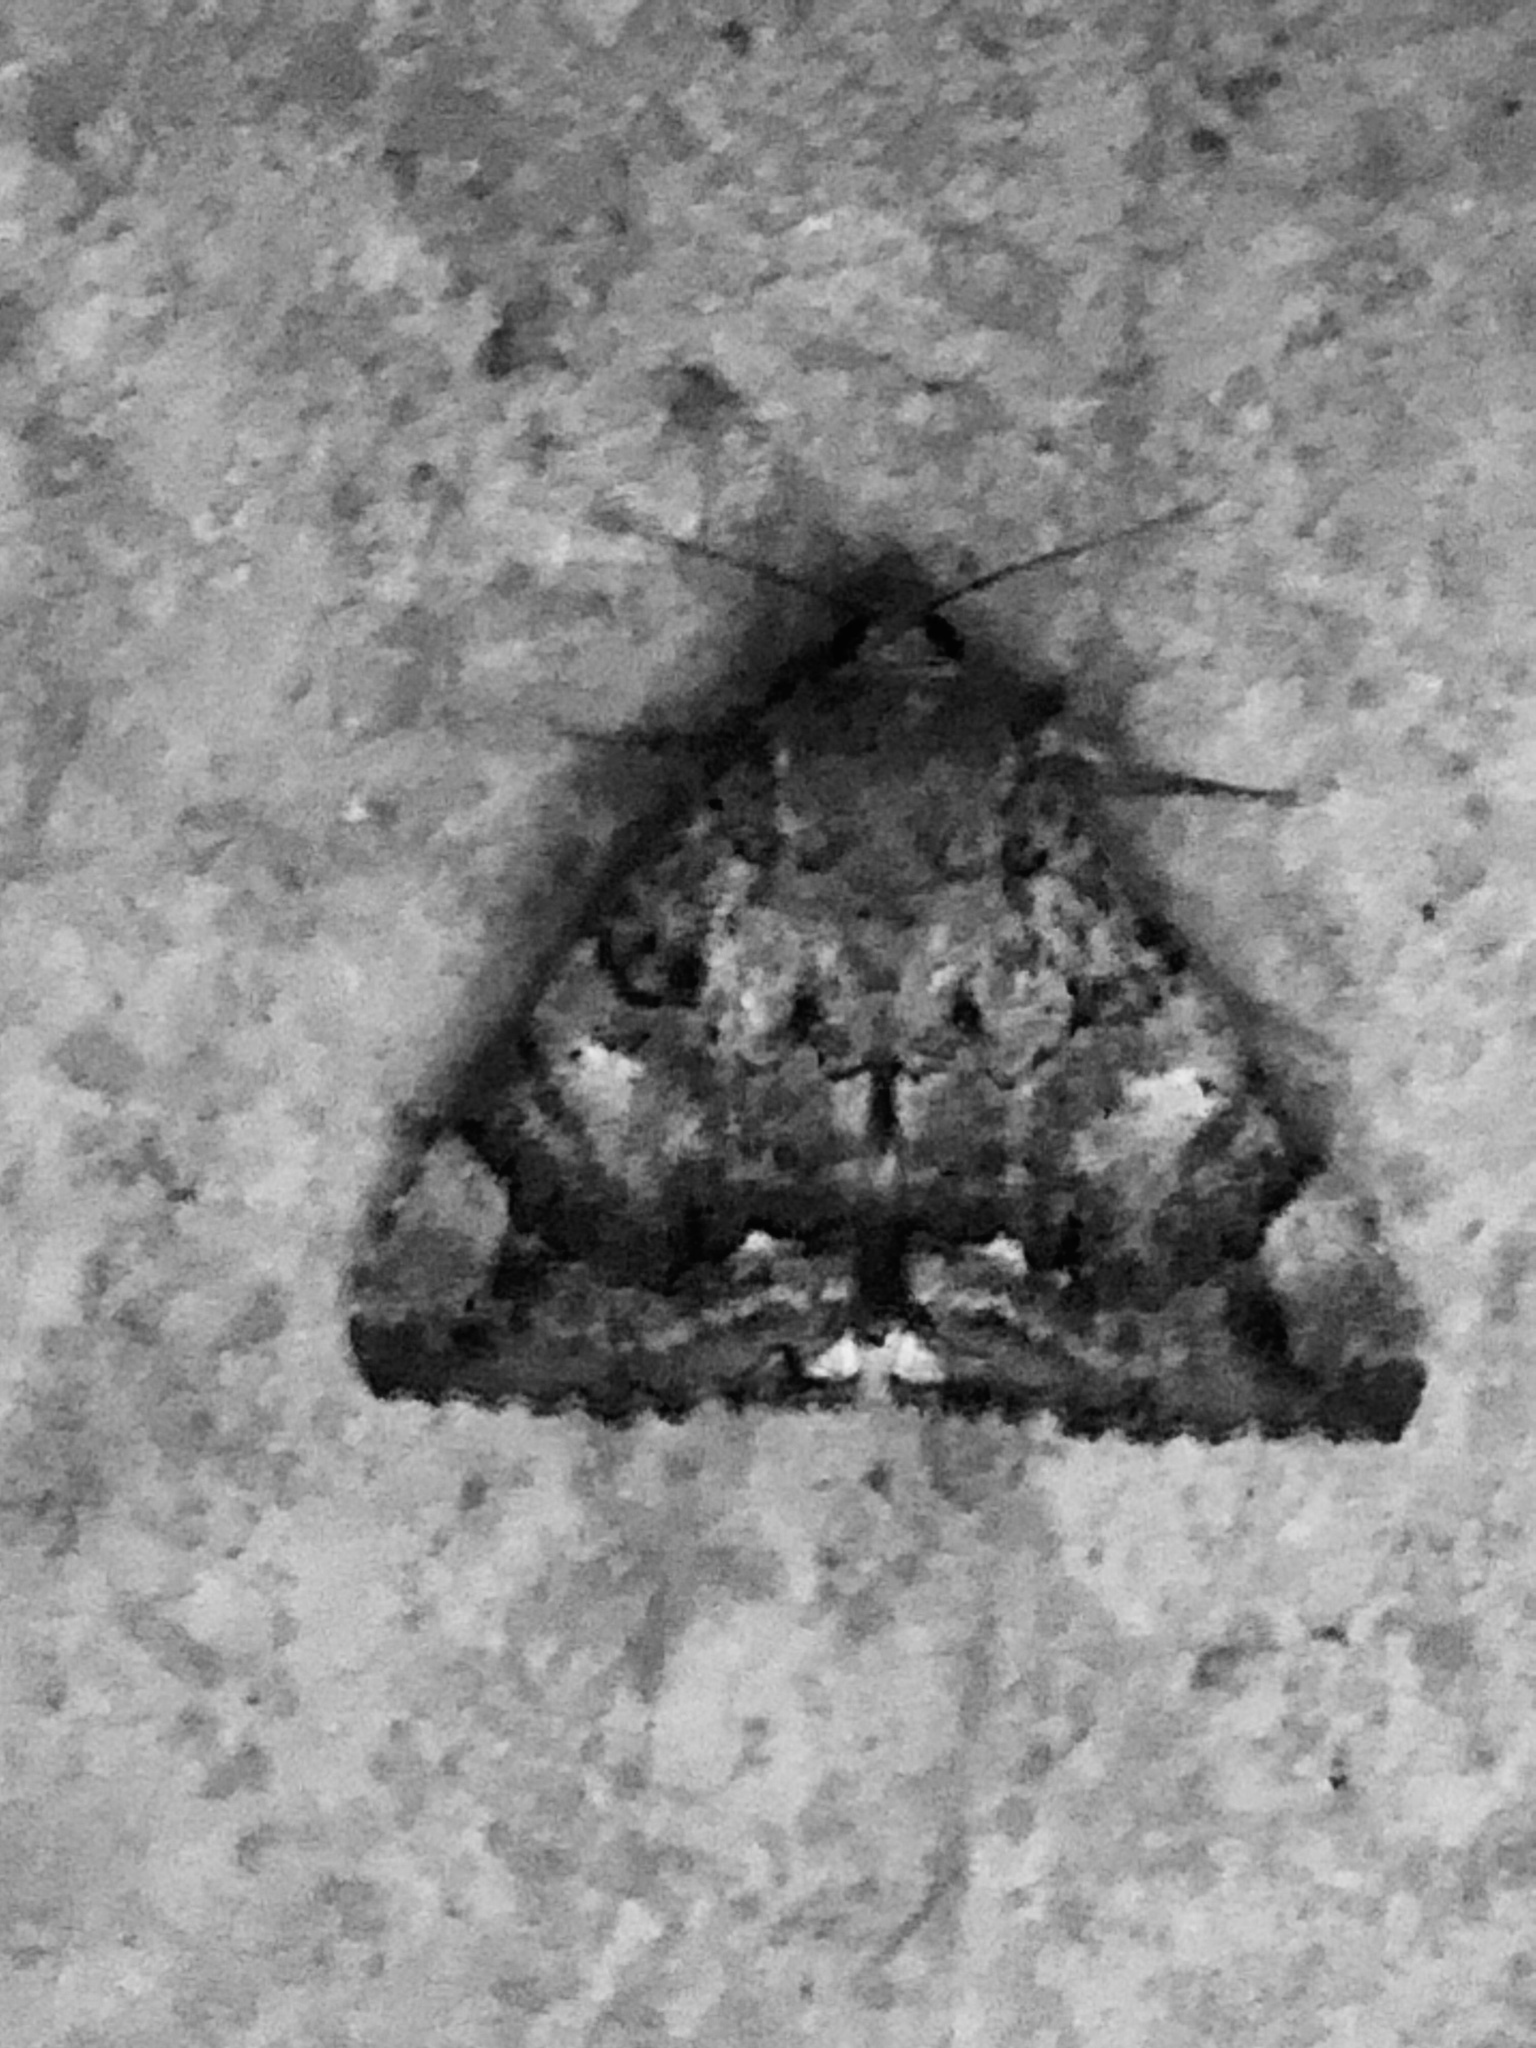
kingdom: Animalia
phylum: Arthropoda
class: Insecta
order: Lepidoptera
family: Erebidae
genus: Achaea
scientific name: Achaea catella
